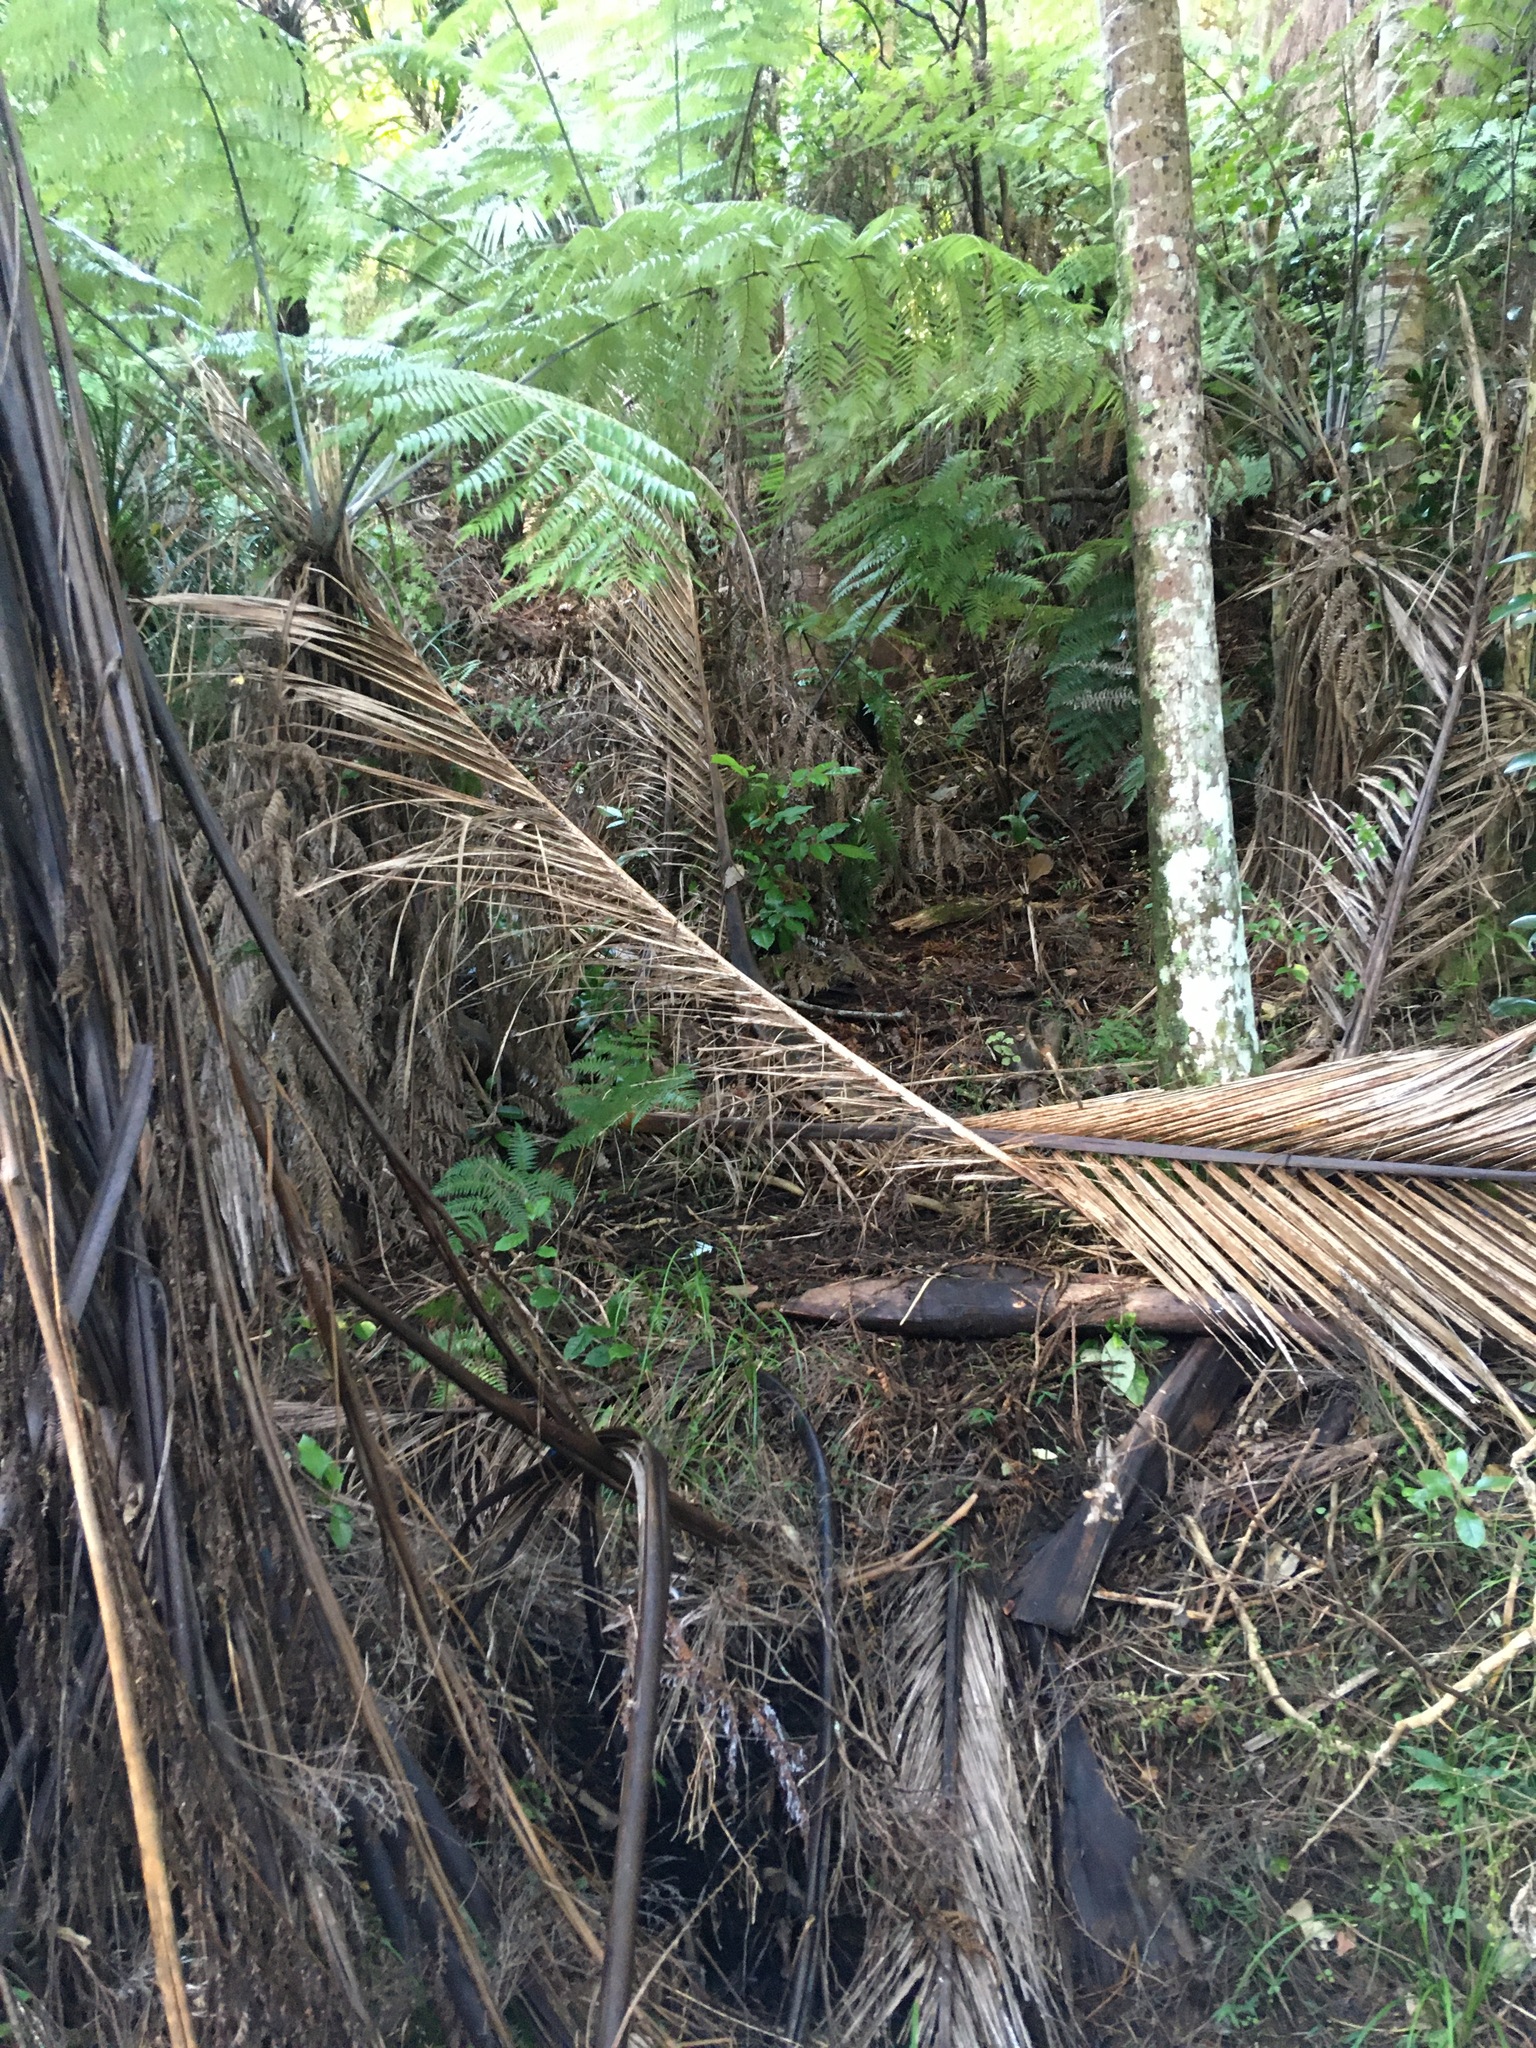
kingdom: Plantae
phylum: Tracheophyta
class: Polypodiopsida
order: Cyatheales
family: Cyatheaceae
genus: Alsophila
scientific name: Alsophila dealbata
